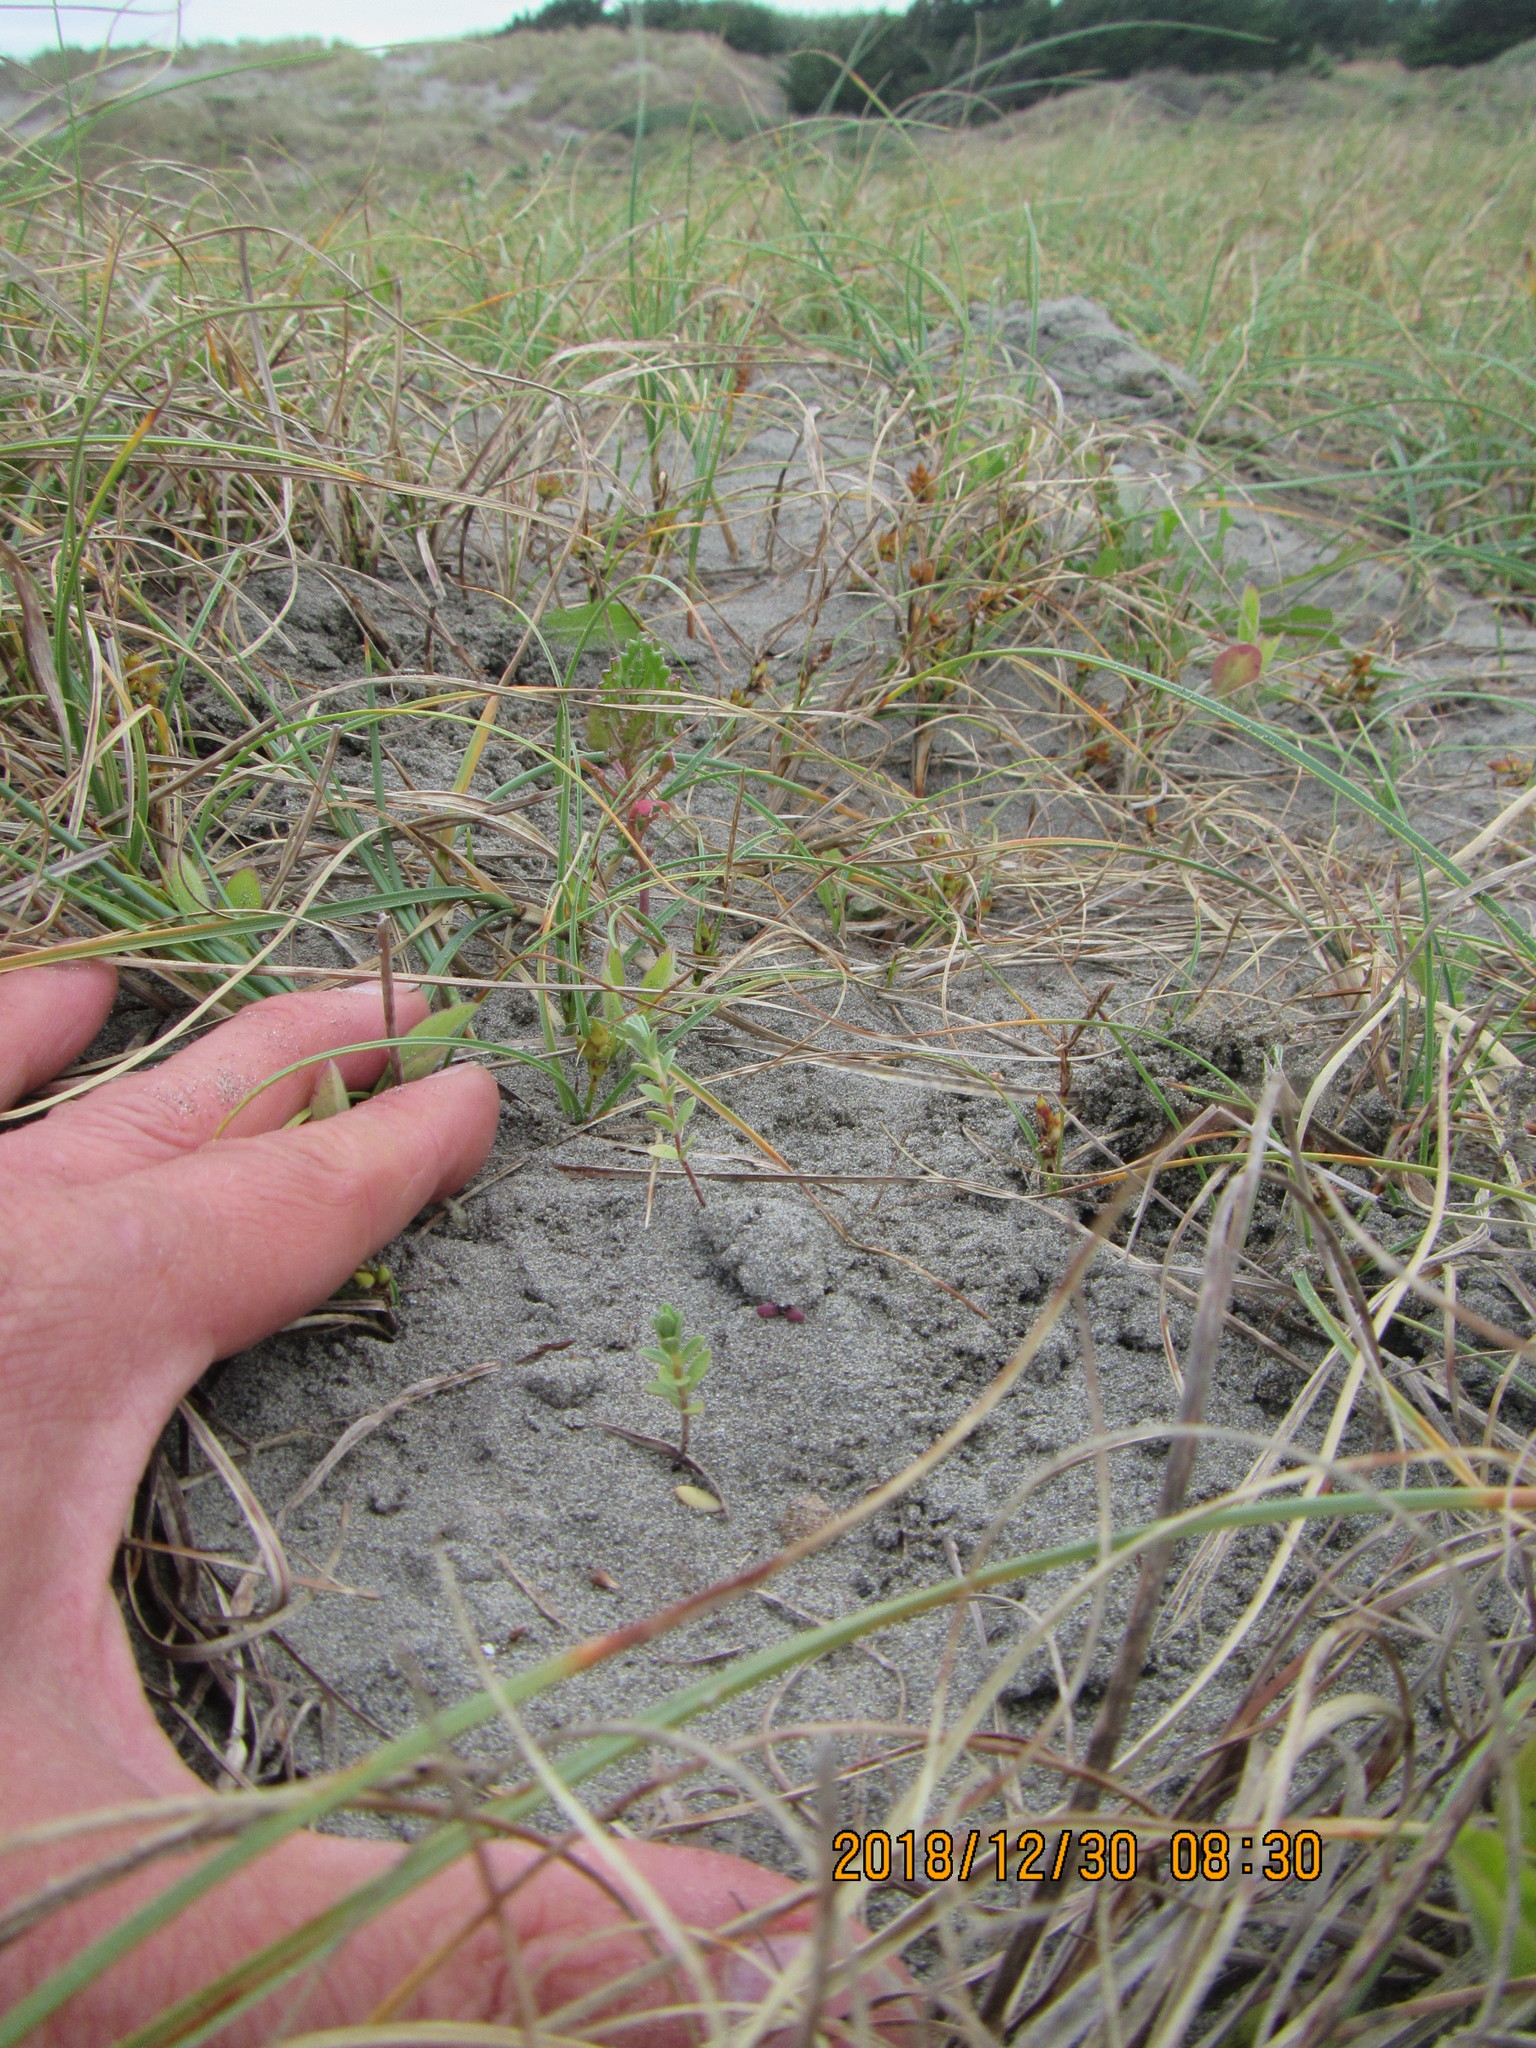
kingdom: Plantae
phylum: Tracheophyta
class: Magnoliopsida
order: Malvales
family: Thymelaeaceae
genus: Pimelea
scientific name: Pimelea villosa
